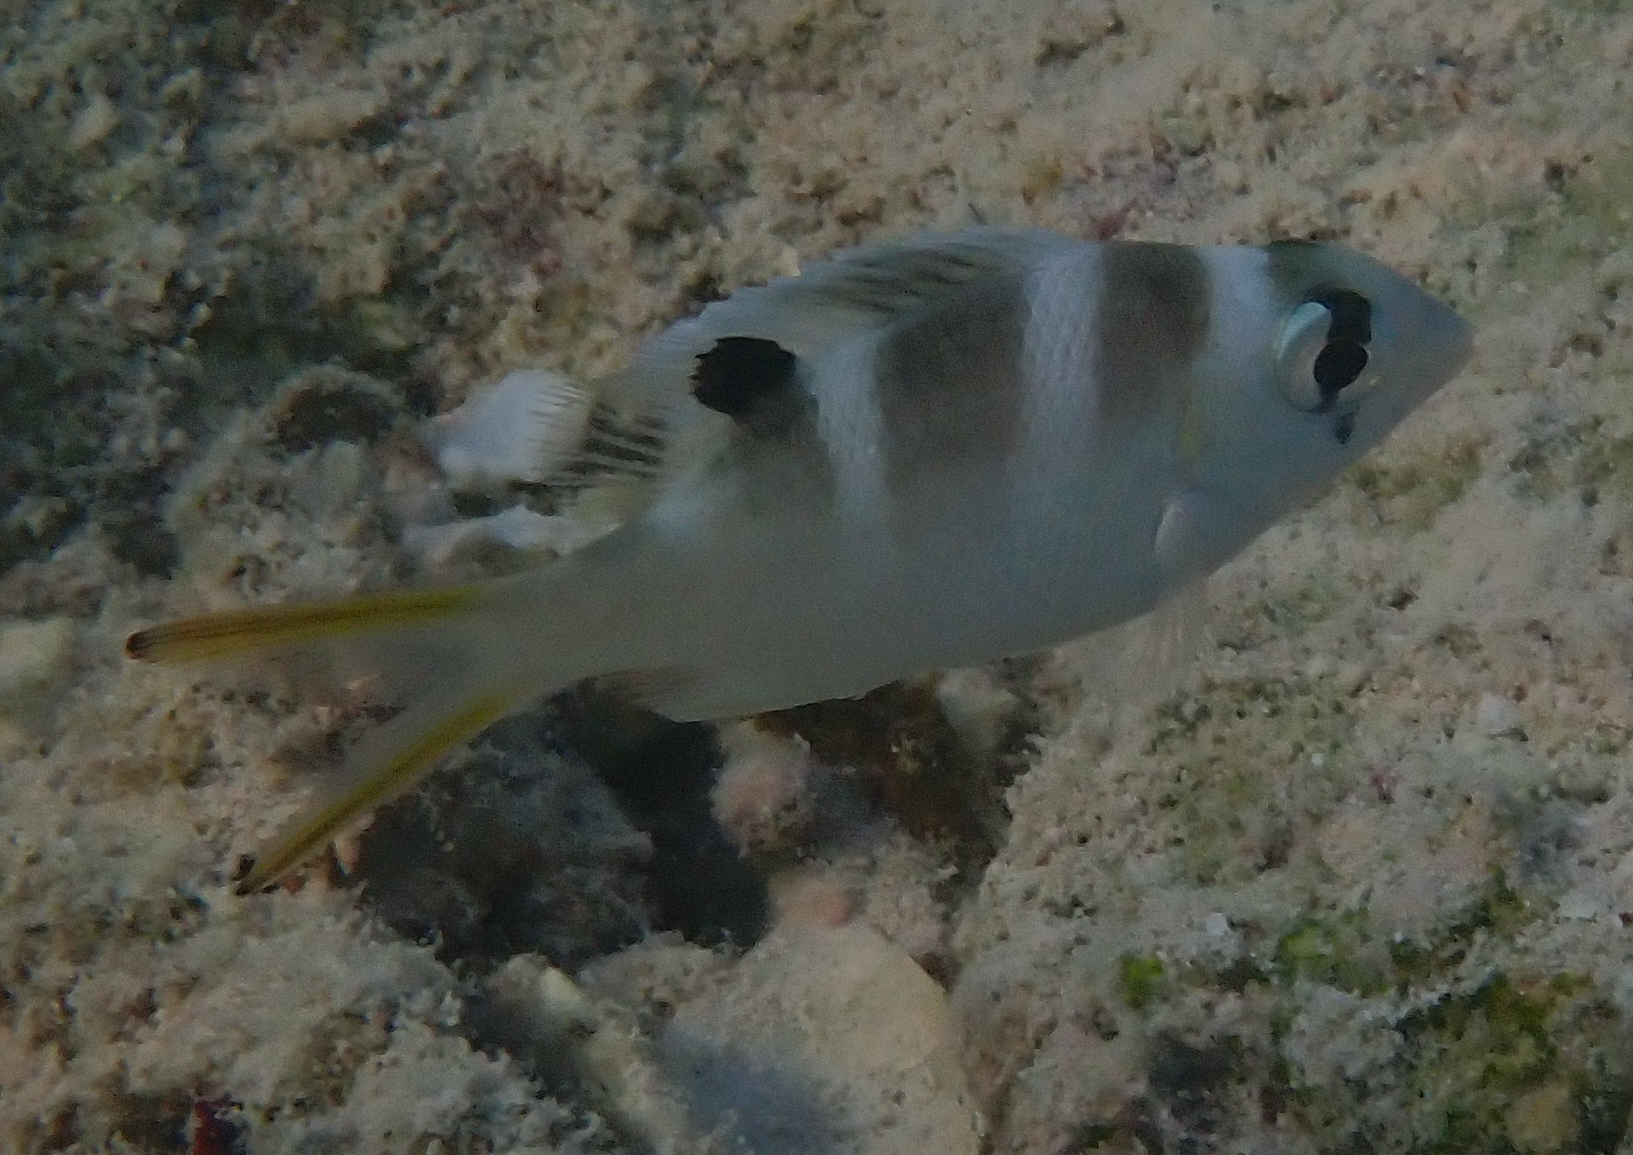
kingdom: Animalia
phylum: Chordata
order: Perciformes
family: Lethrinidae
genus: Monotaxis
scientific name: Monotaxis grandoculis
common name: Bigeye emperor
